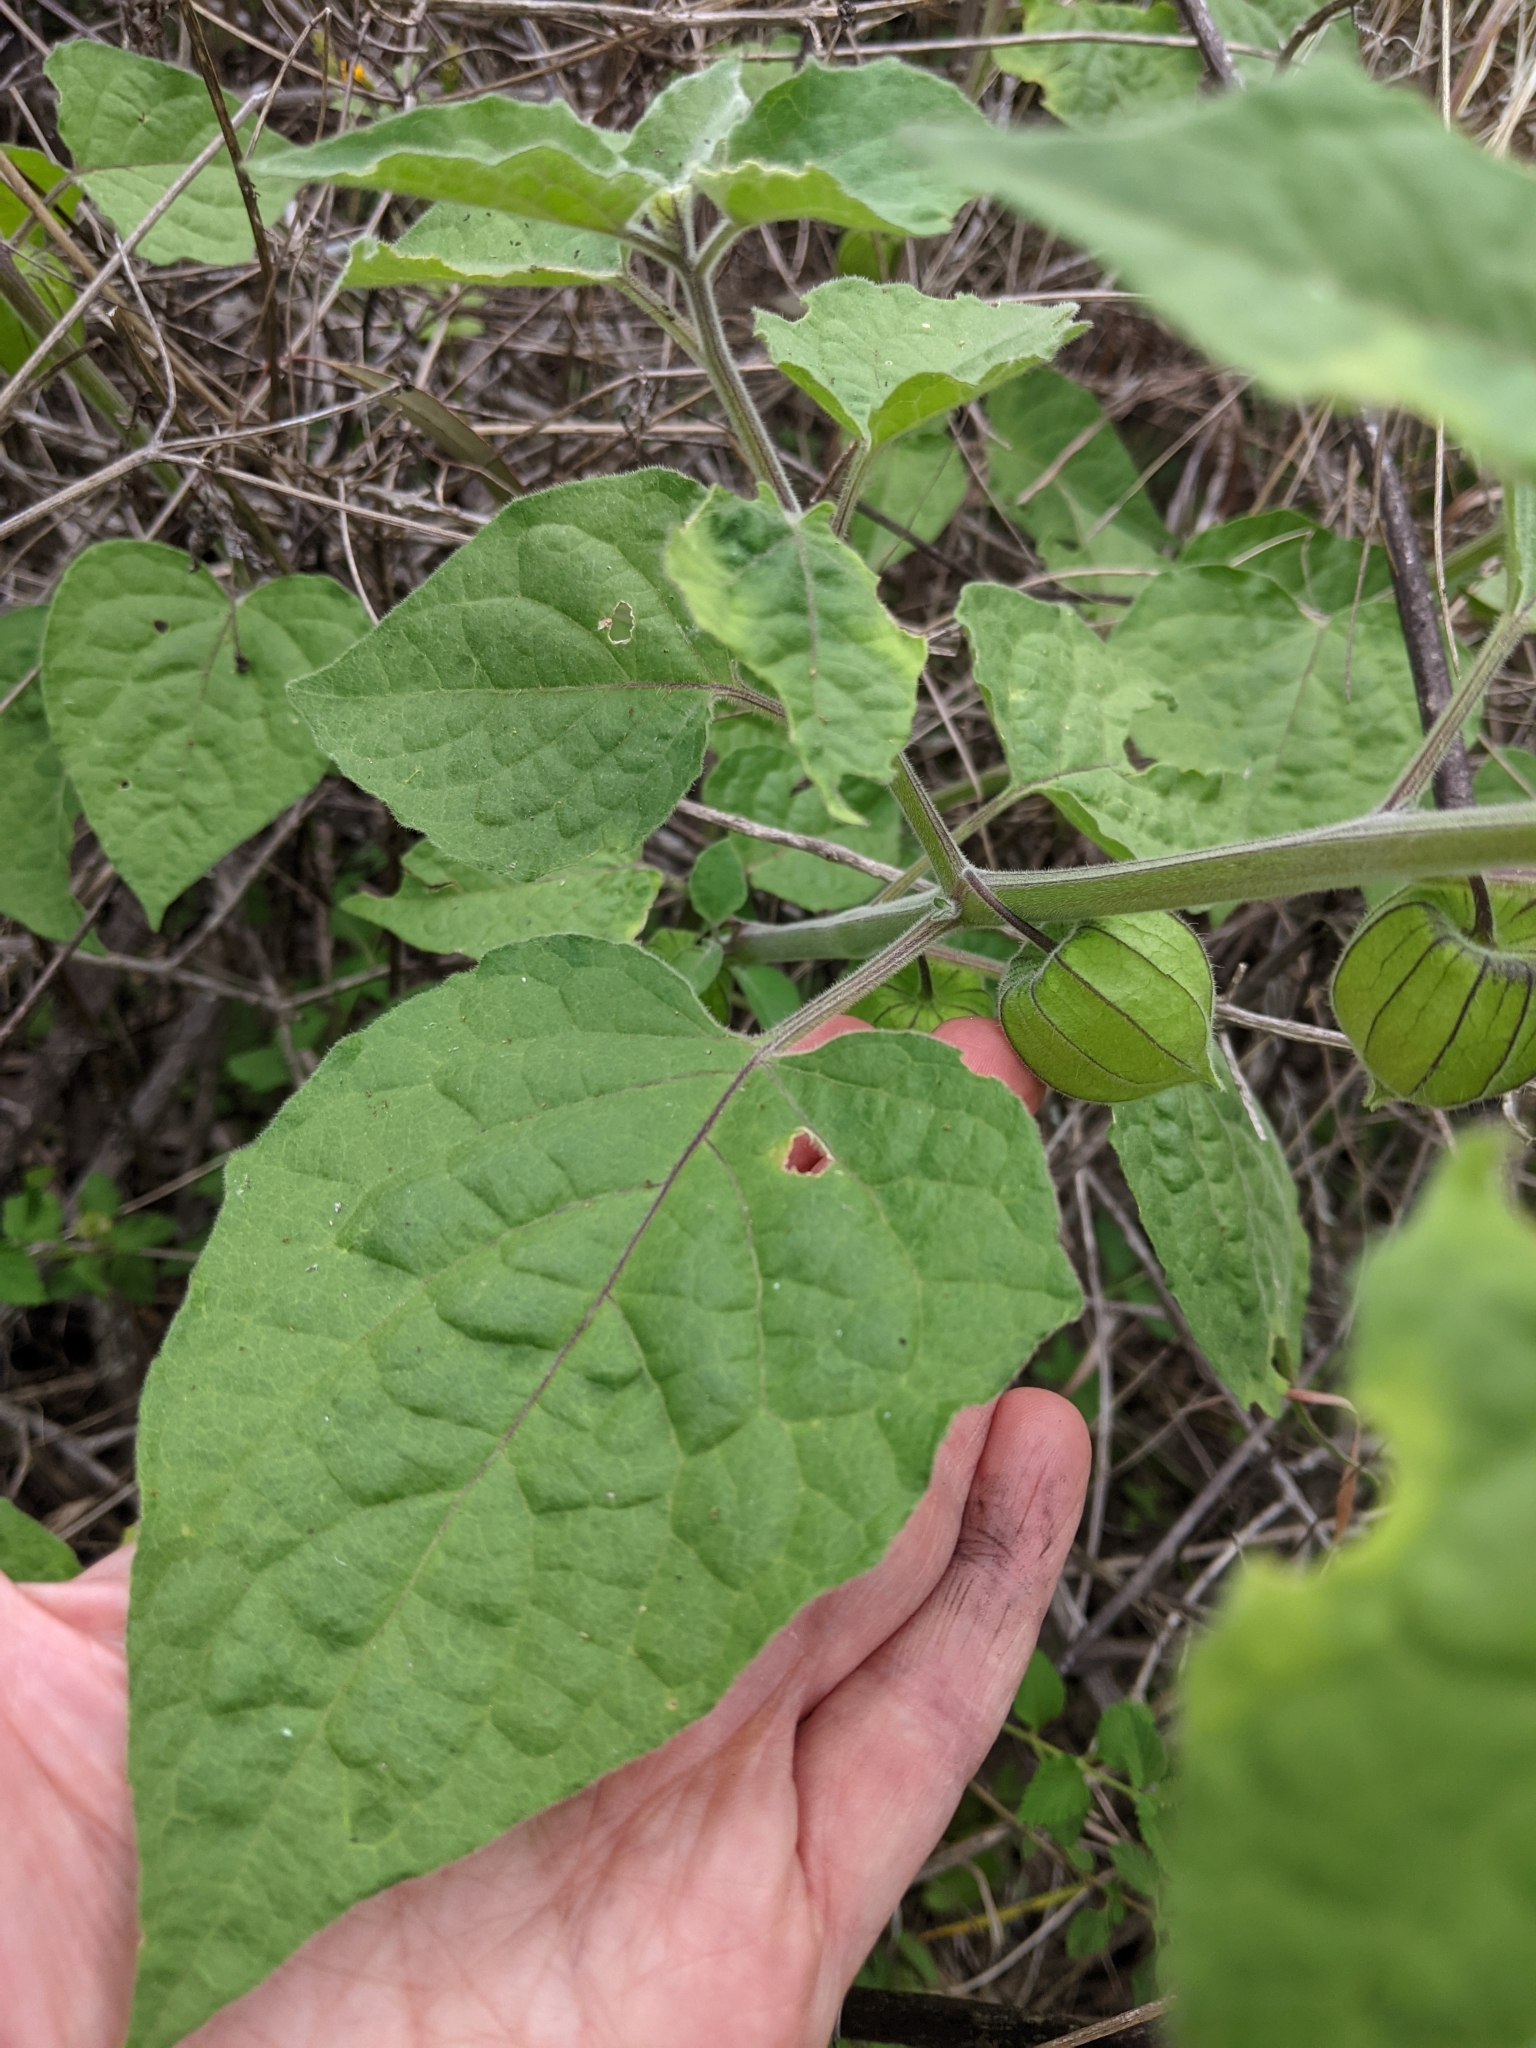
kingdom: Plantae
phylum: Tracheophyta
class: Magnoliopsida
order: Solanales
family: Solanaceae
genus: Physalis
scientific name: Physalis peruviana
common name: Cape-gooseberry
